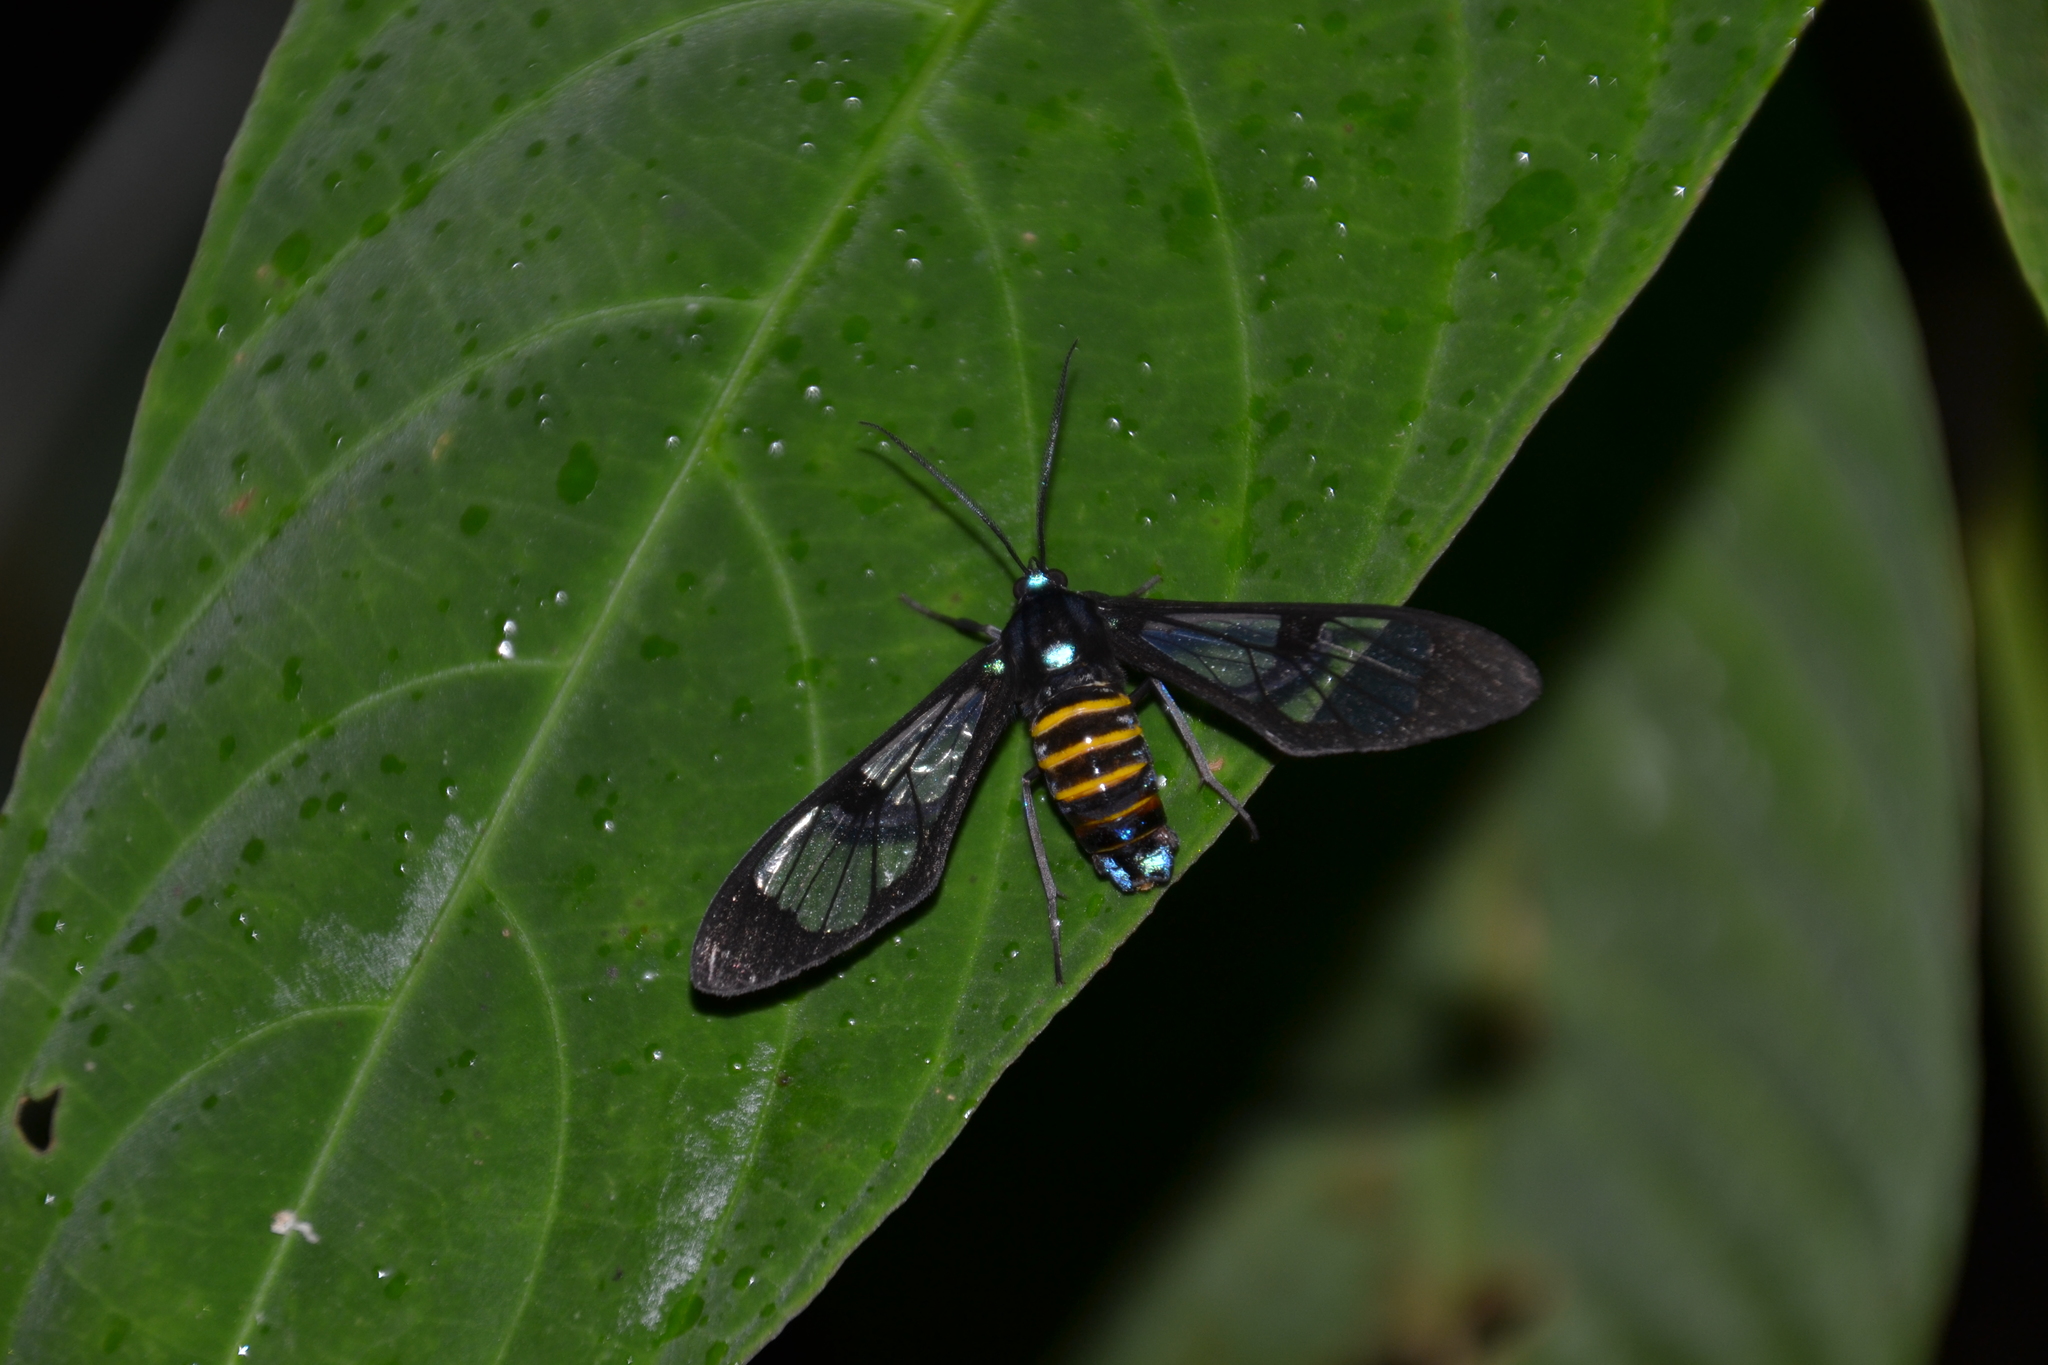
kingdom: Animalia
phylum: Arthropoda
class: Insecta
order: Lepidoptera
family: Erebidae
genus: Gymnelia
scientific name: Gymnelia nobilis
